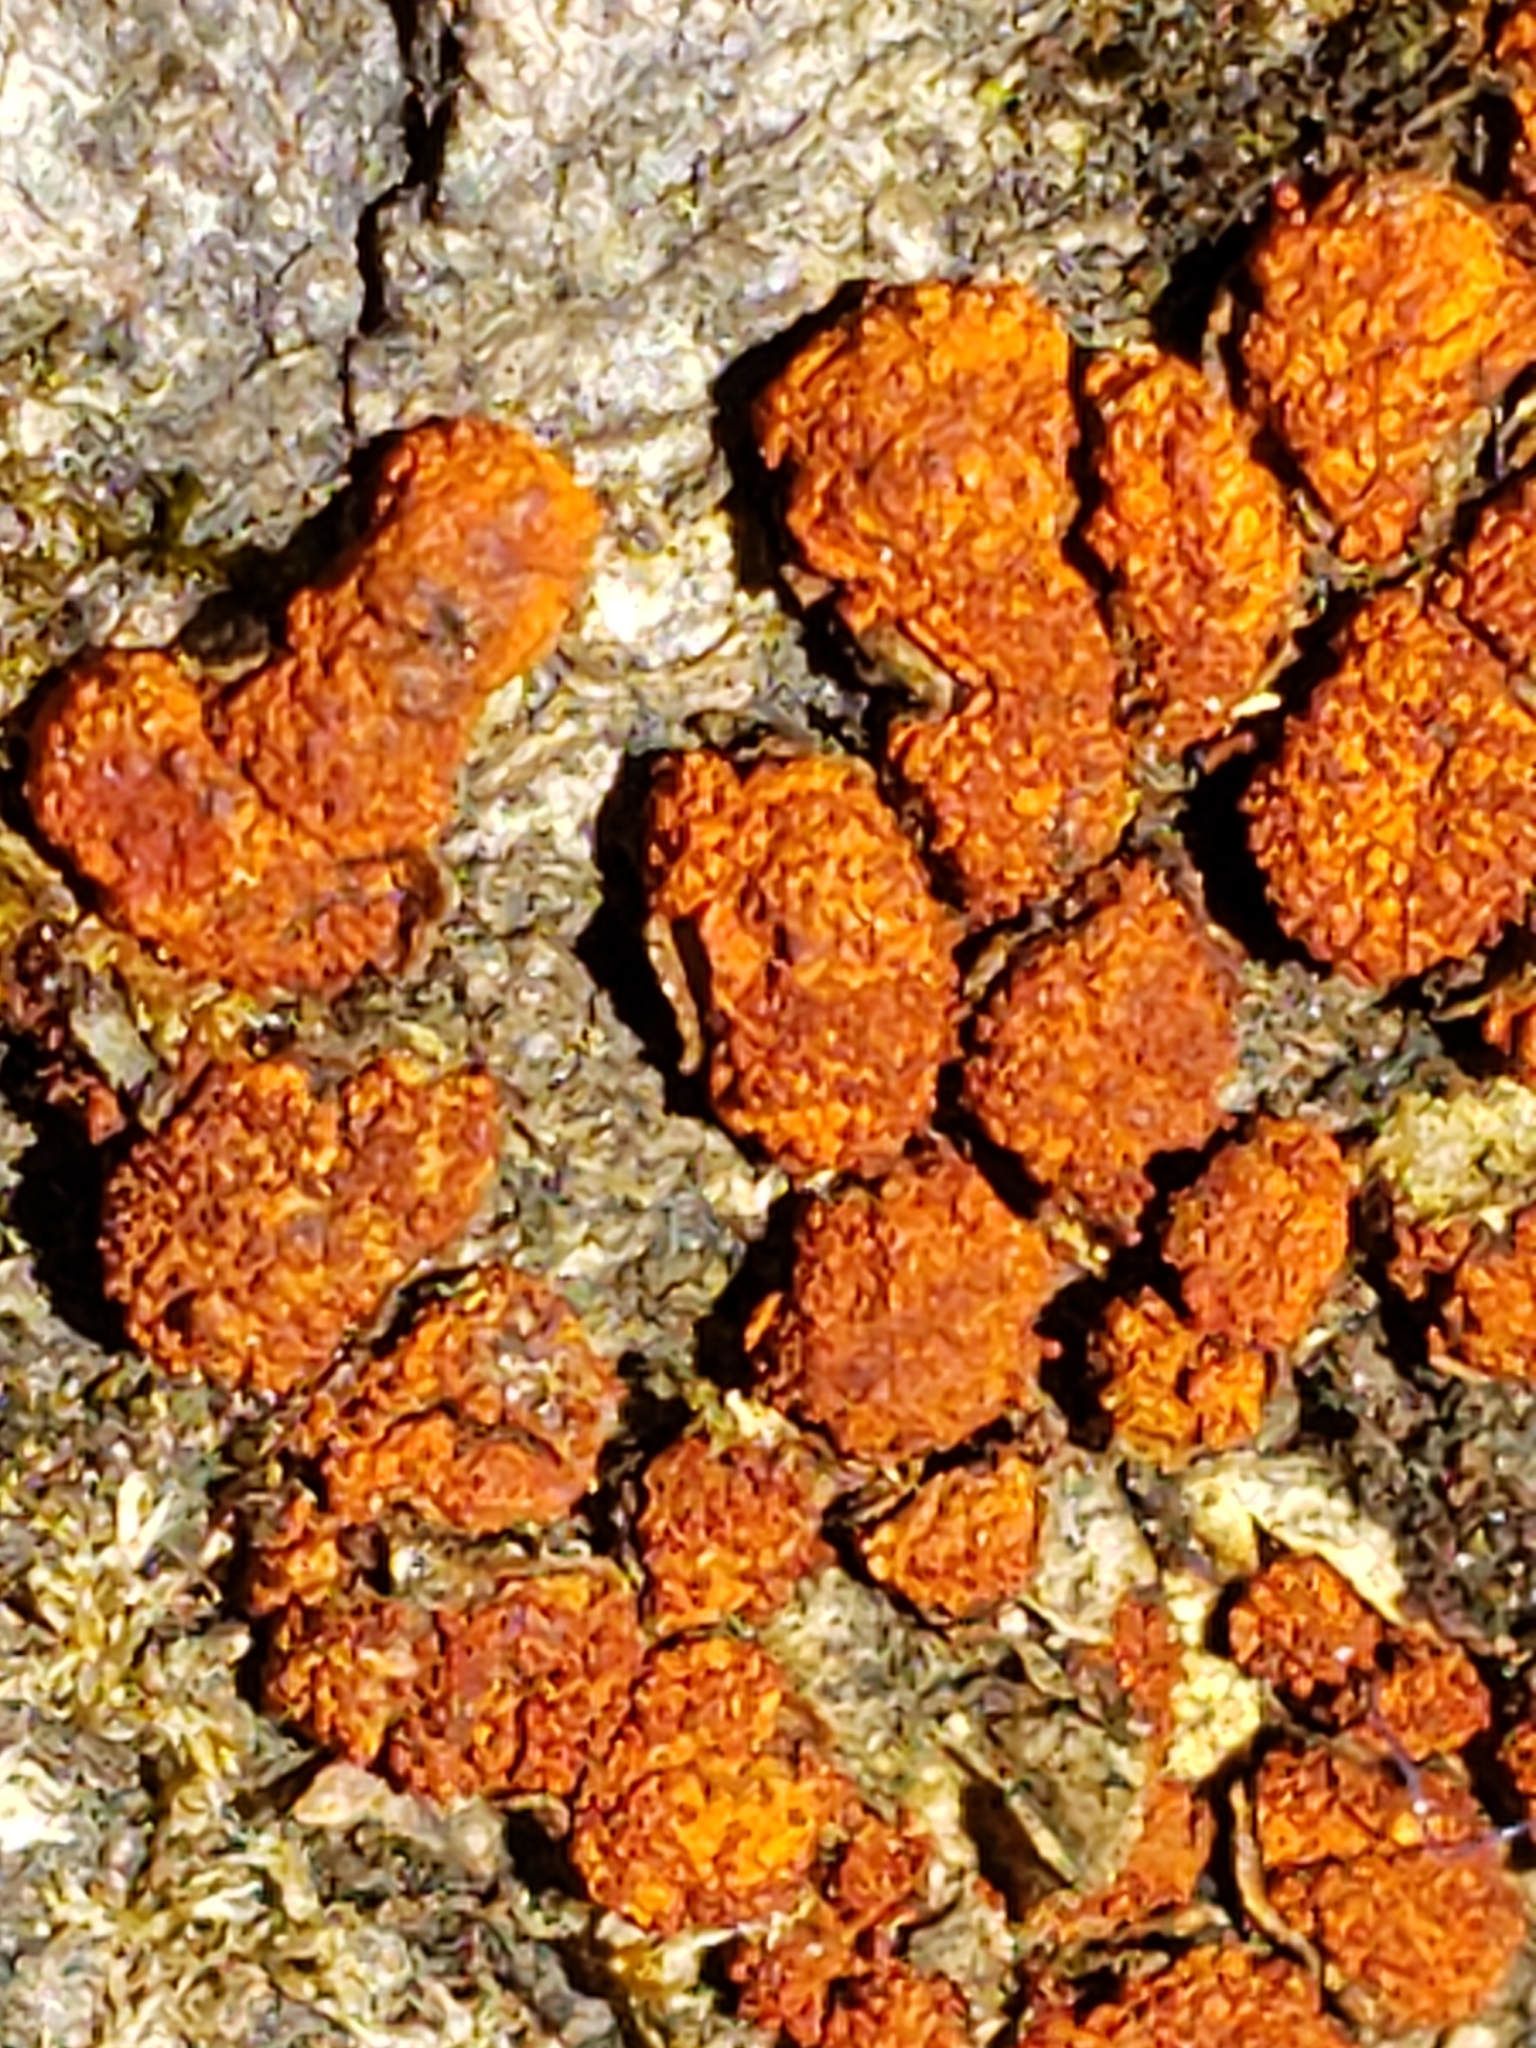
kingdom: Fungi
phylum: Ascomycota
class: Sordariomycetes
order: Diaporthales
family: Cryphonectriaceae
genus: Amphilogia
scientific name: Amphilogia gyrosa
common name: Orange hobnail canker
